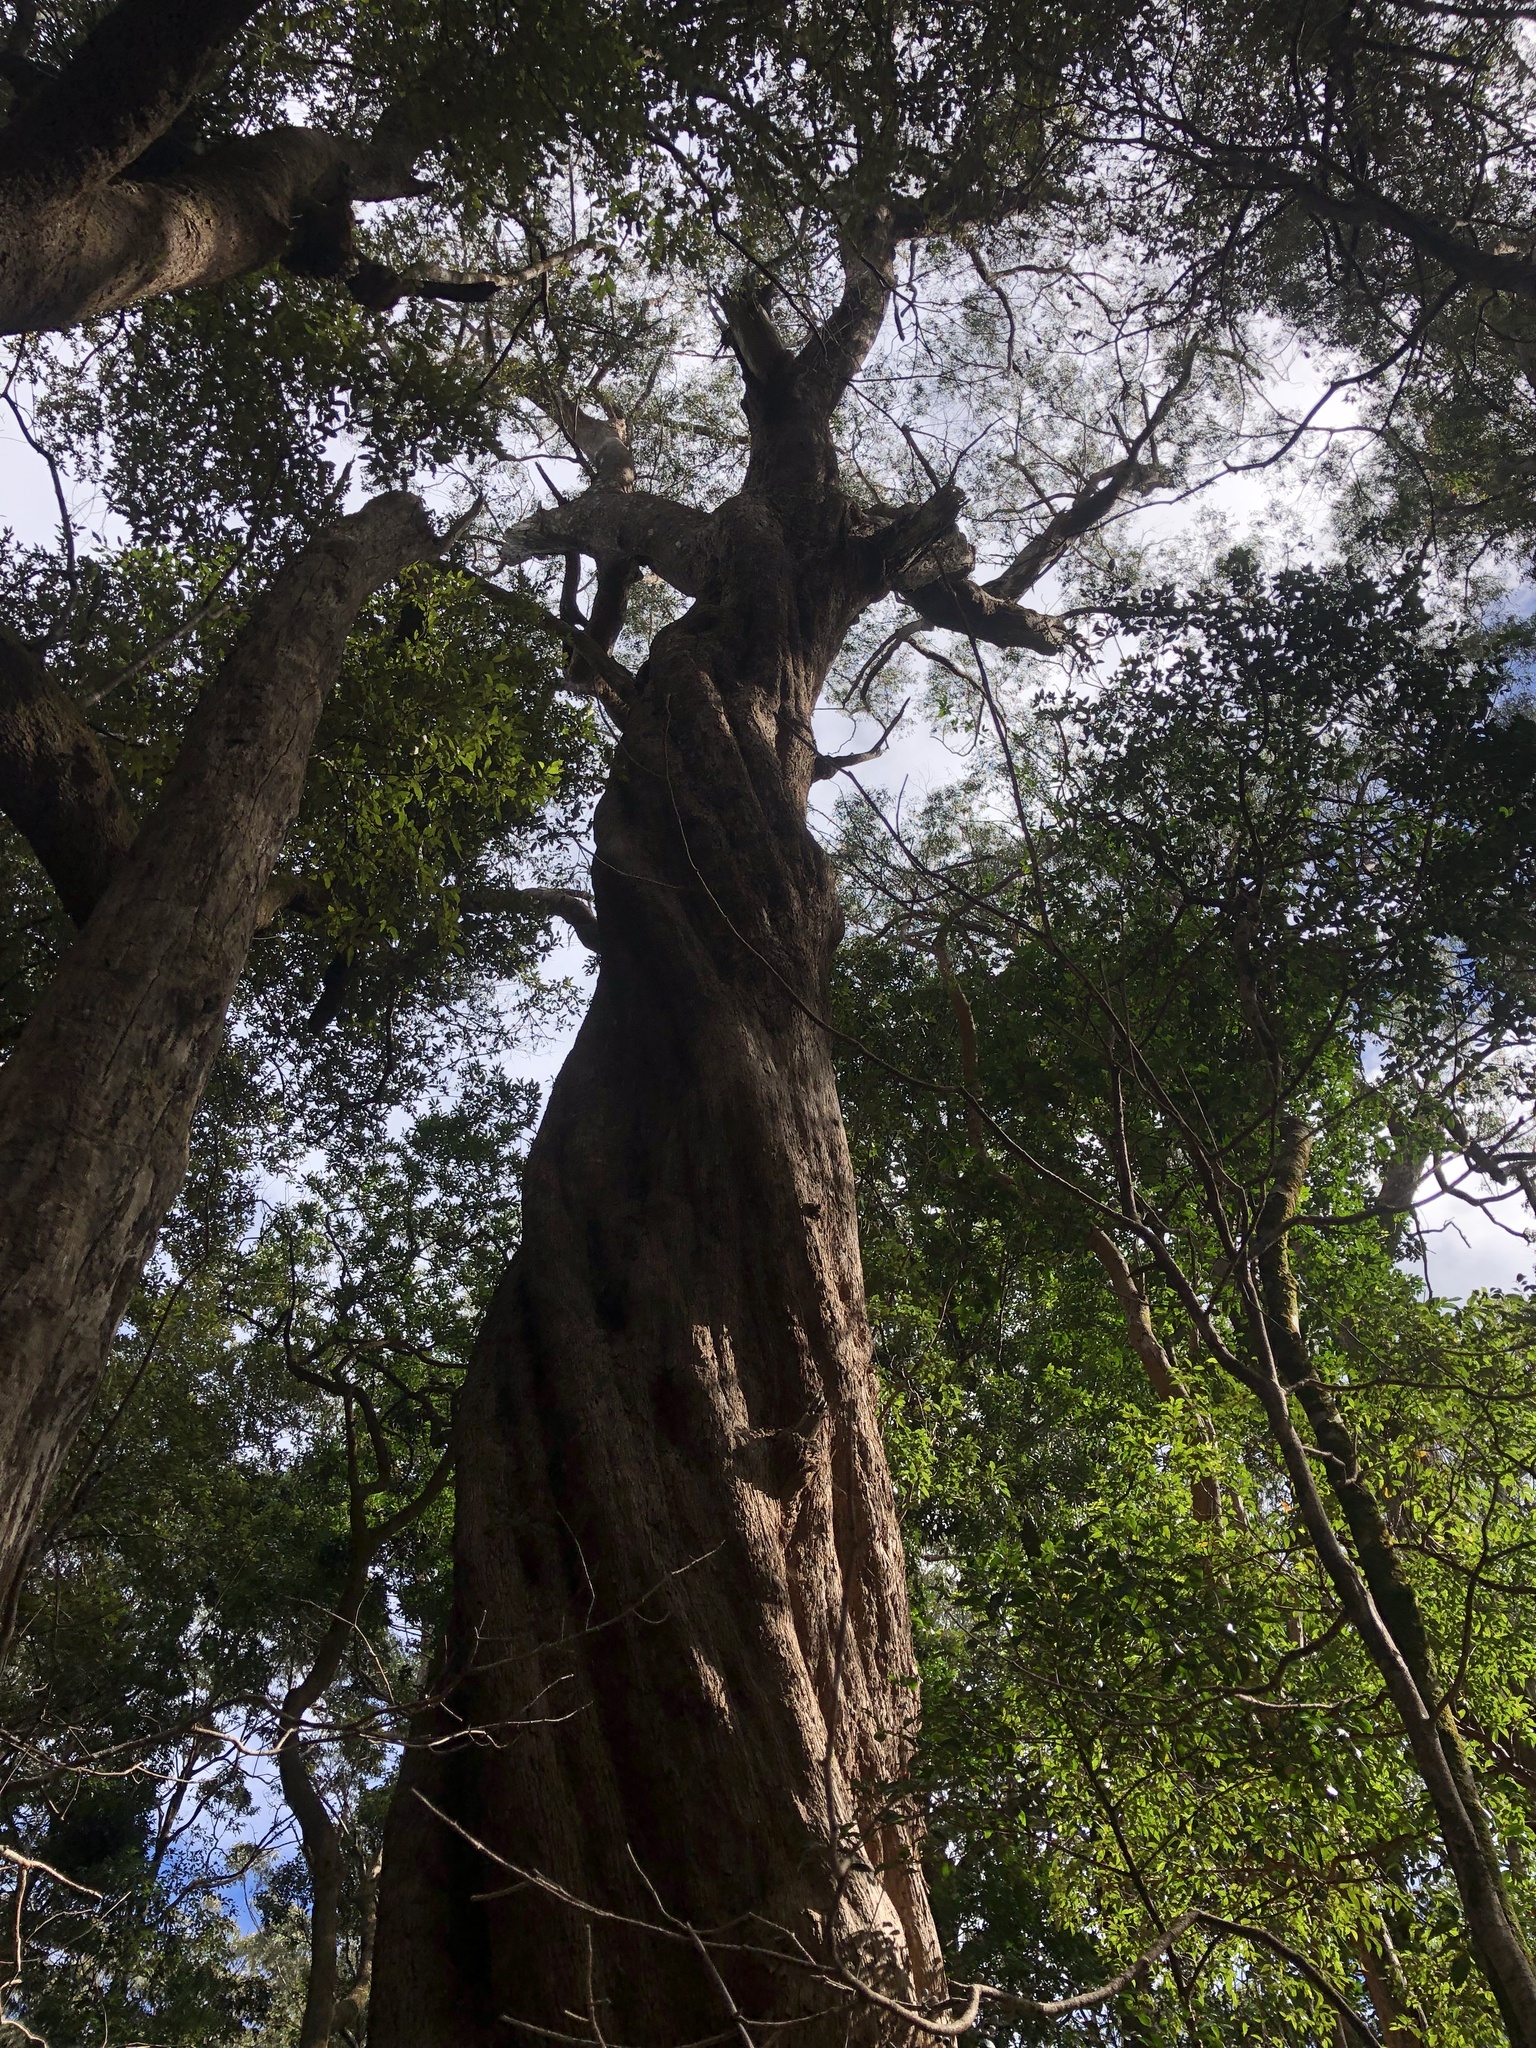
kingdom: Plantae
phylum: Tracheophyta
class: Magnoliopsida
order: Myrtales
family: Myrtaceae
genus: Eucalyptus
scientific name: Eucalyptus andrewsii
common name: New england blackbutt
